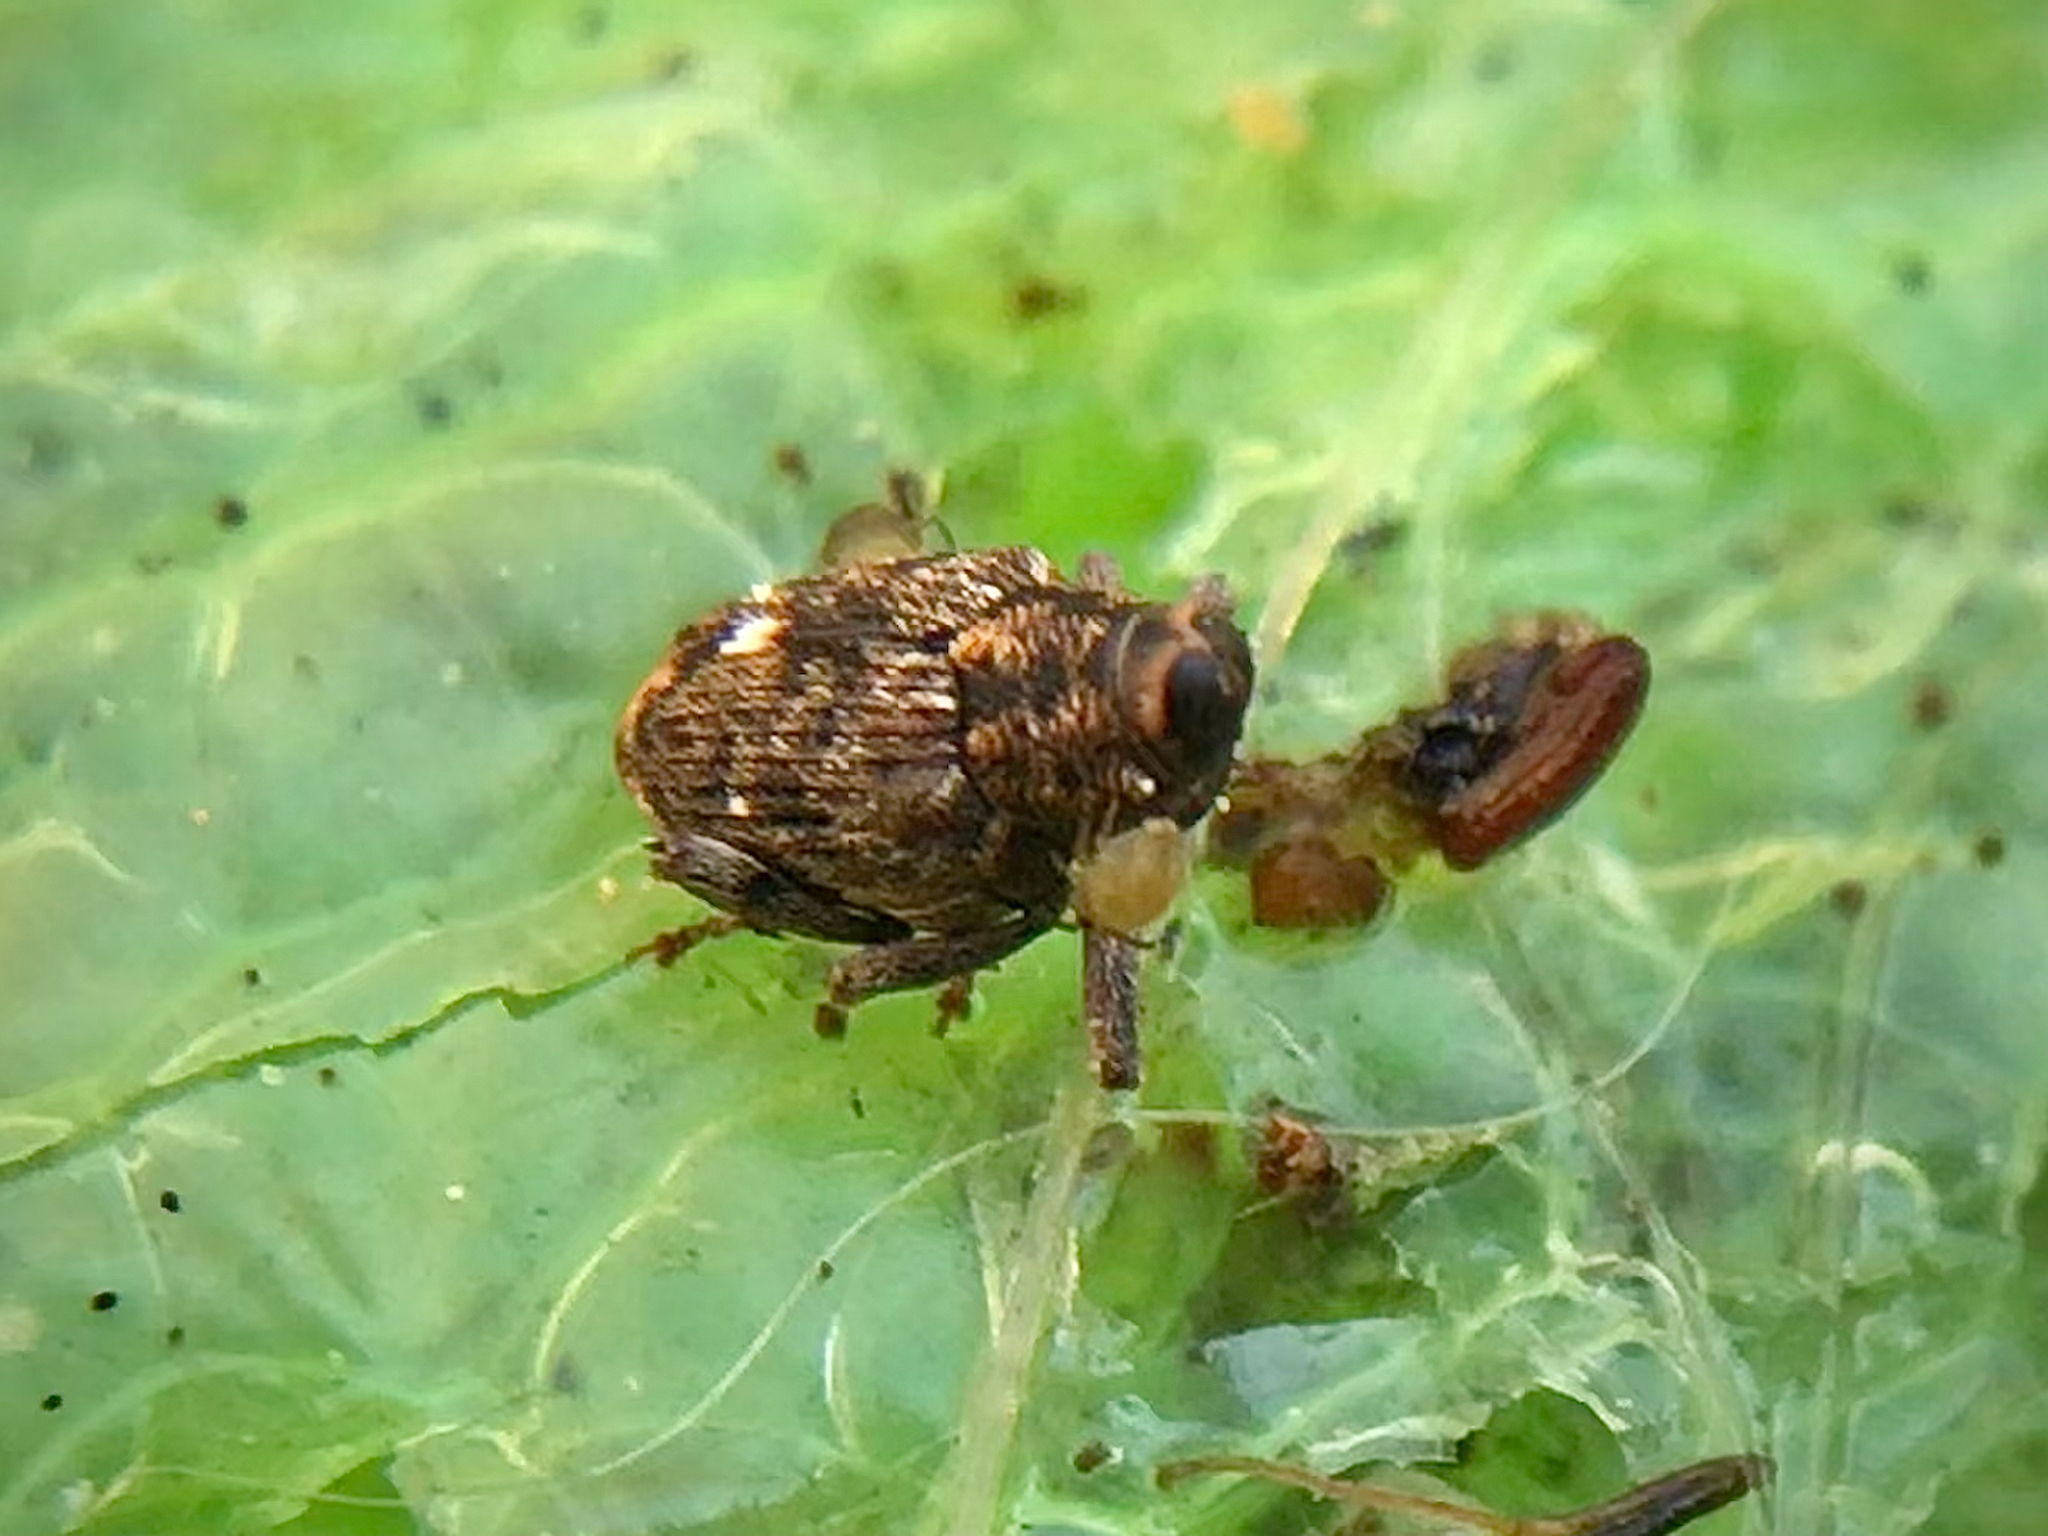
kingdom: Animalia
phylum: Arthropoda
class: Insecta
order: Coleoptera
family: Curculionidae
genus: Lechriops
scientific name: Lechriops oculatus
